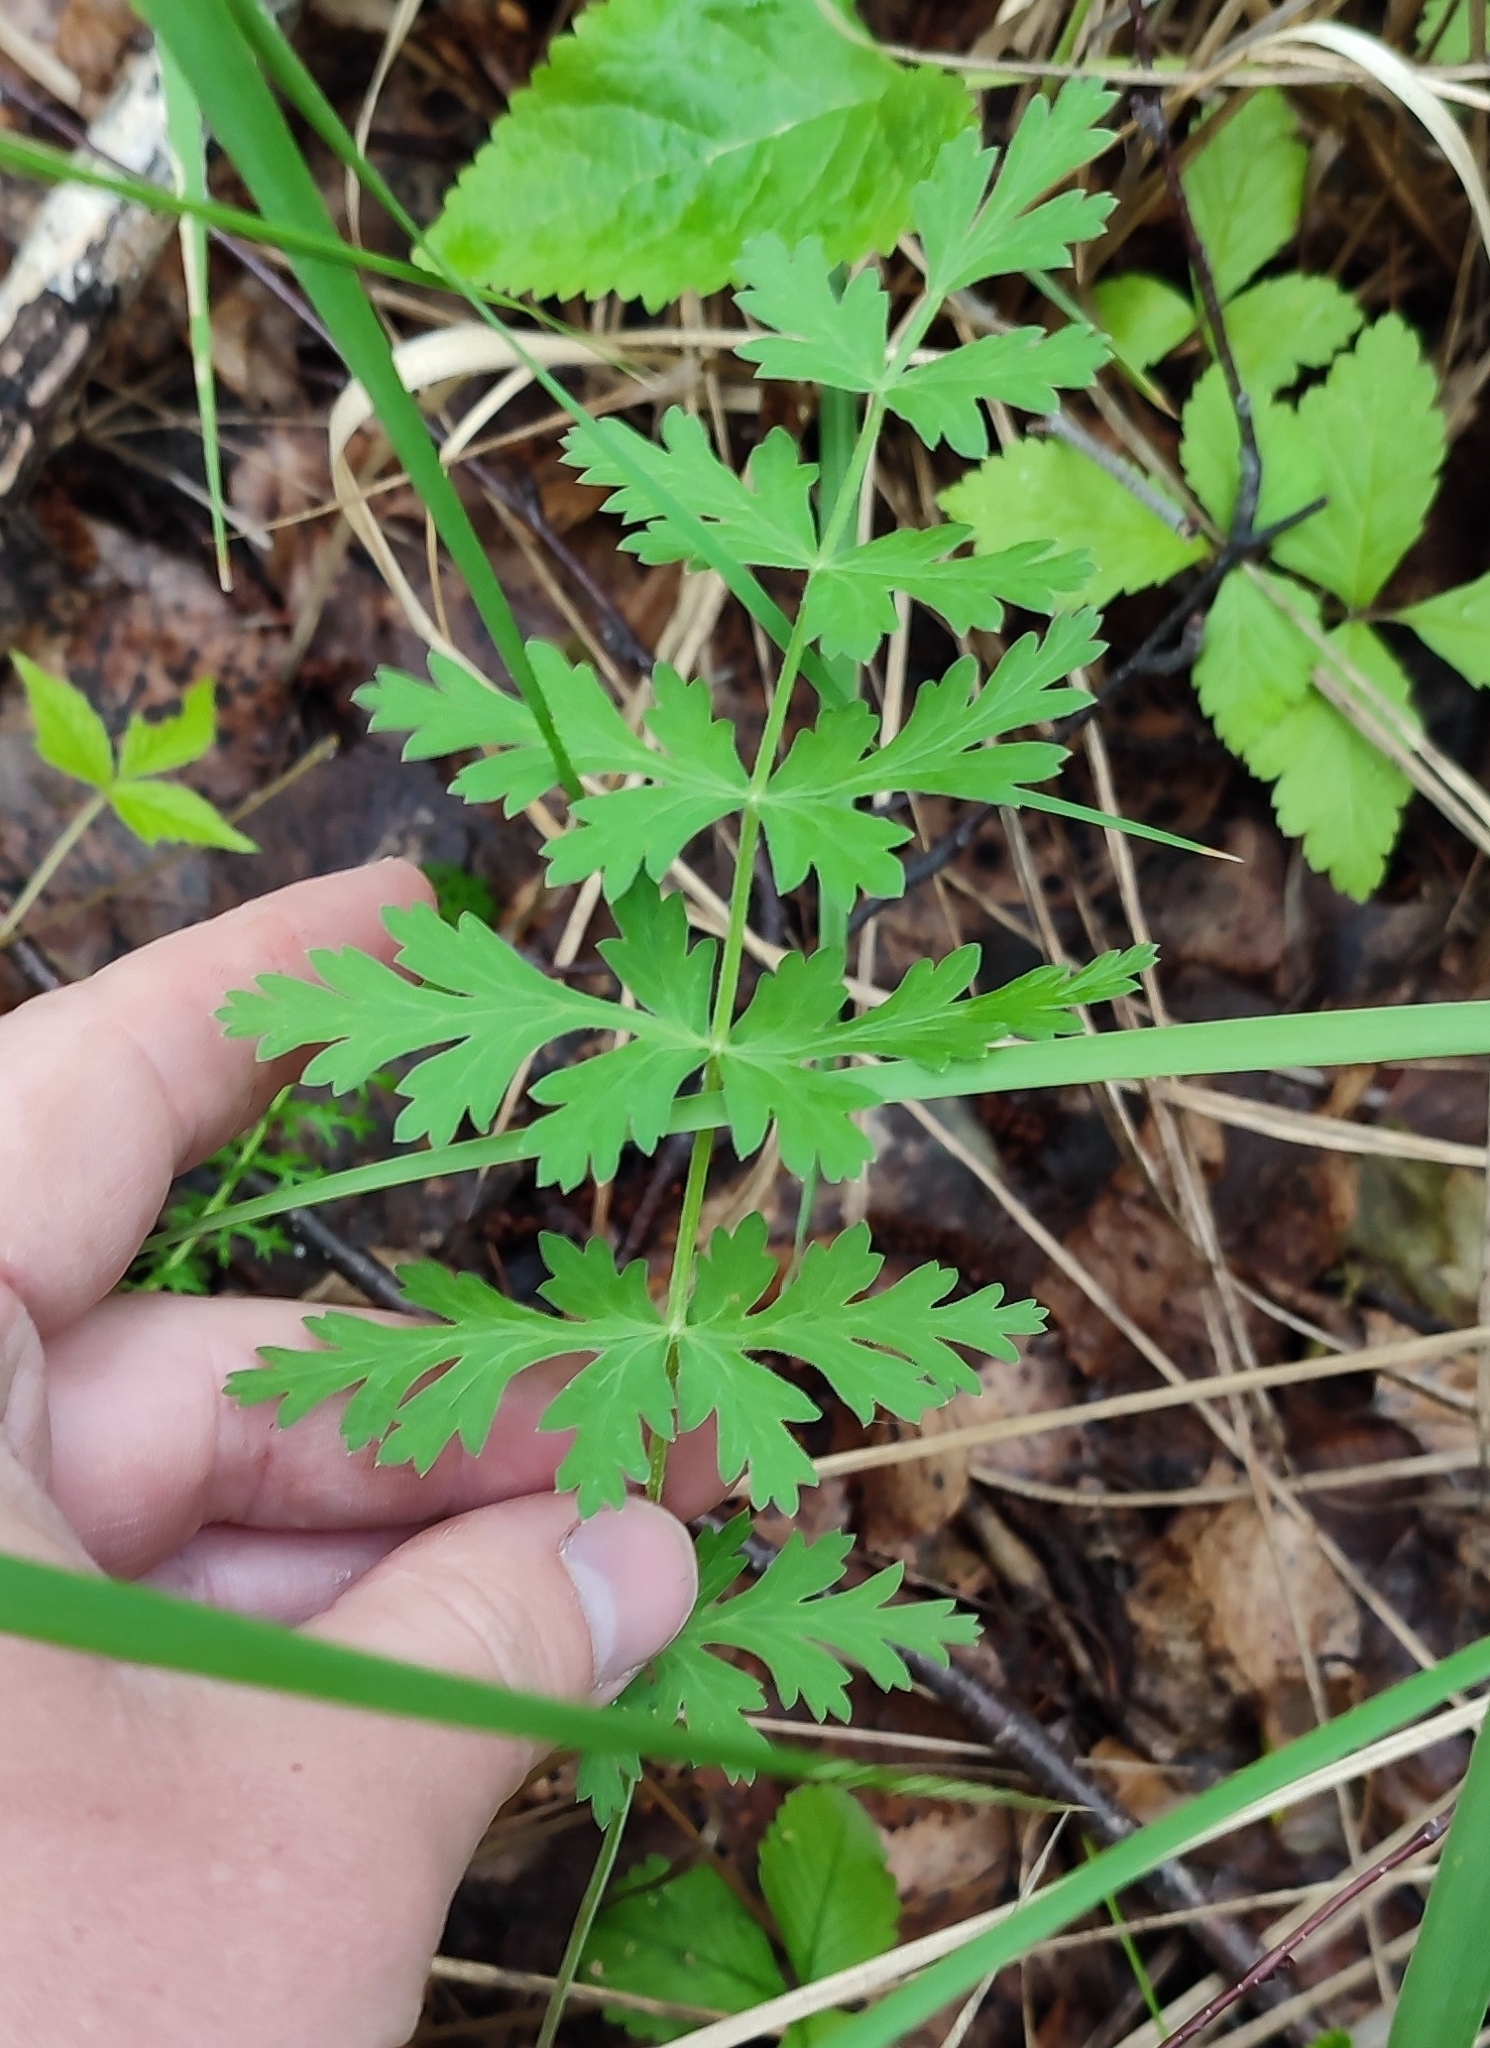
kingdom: Plantae
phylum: Tracheophyta
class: Magnoliopsida
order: Apiales
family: Apiaceae
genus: Seseli
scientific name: Seseli libanotis
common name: Mooncarrot
